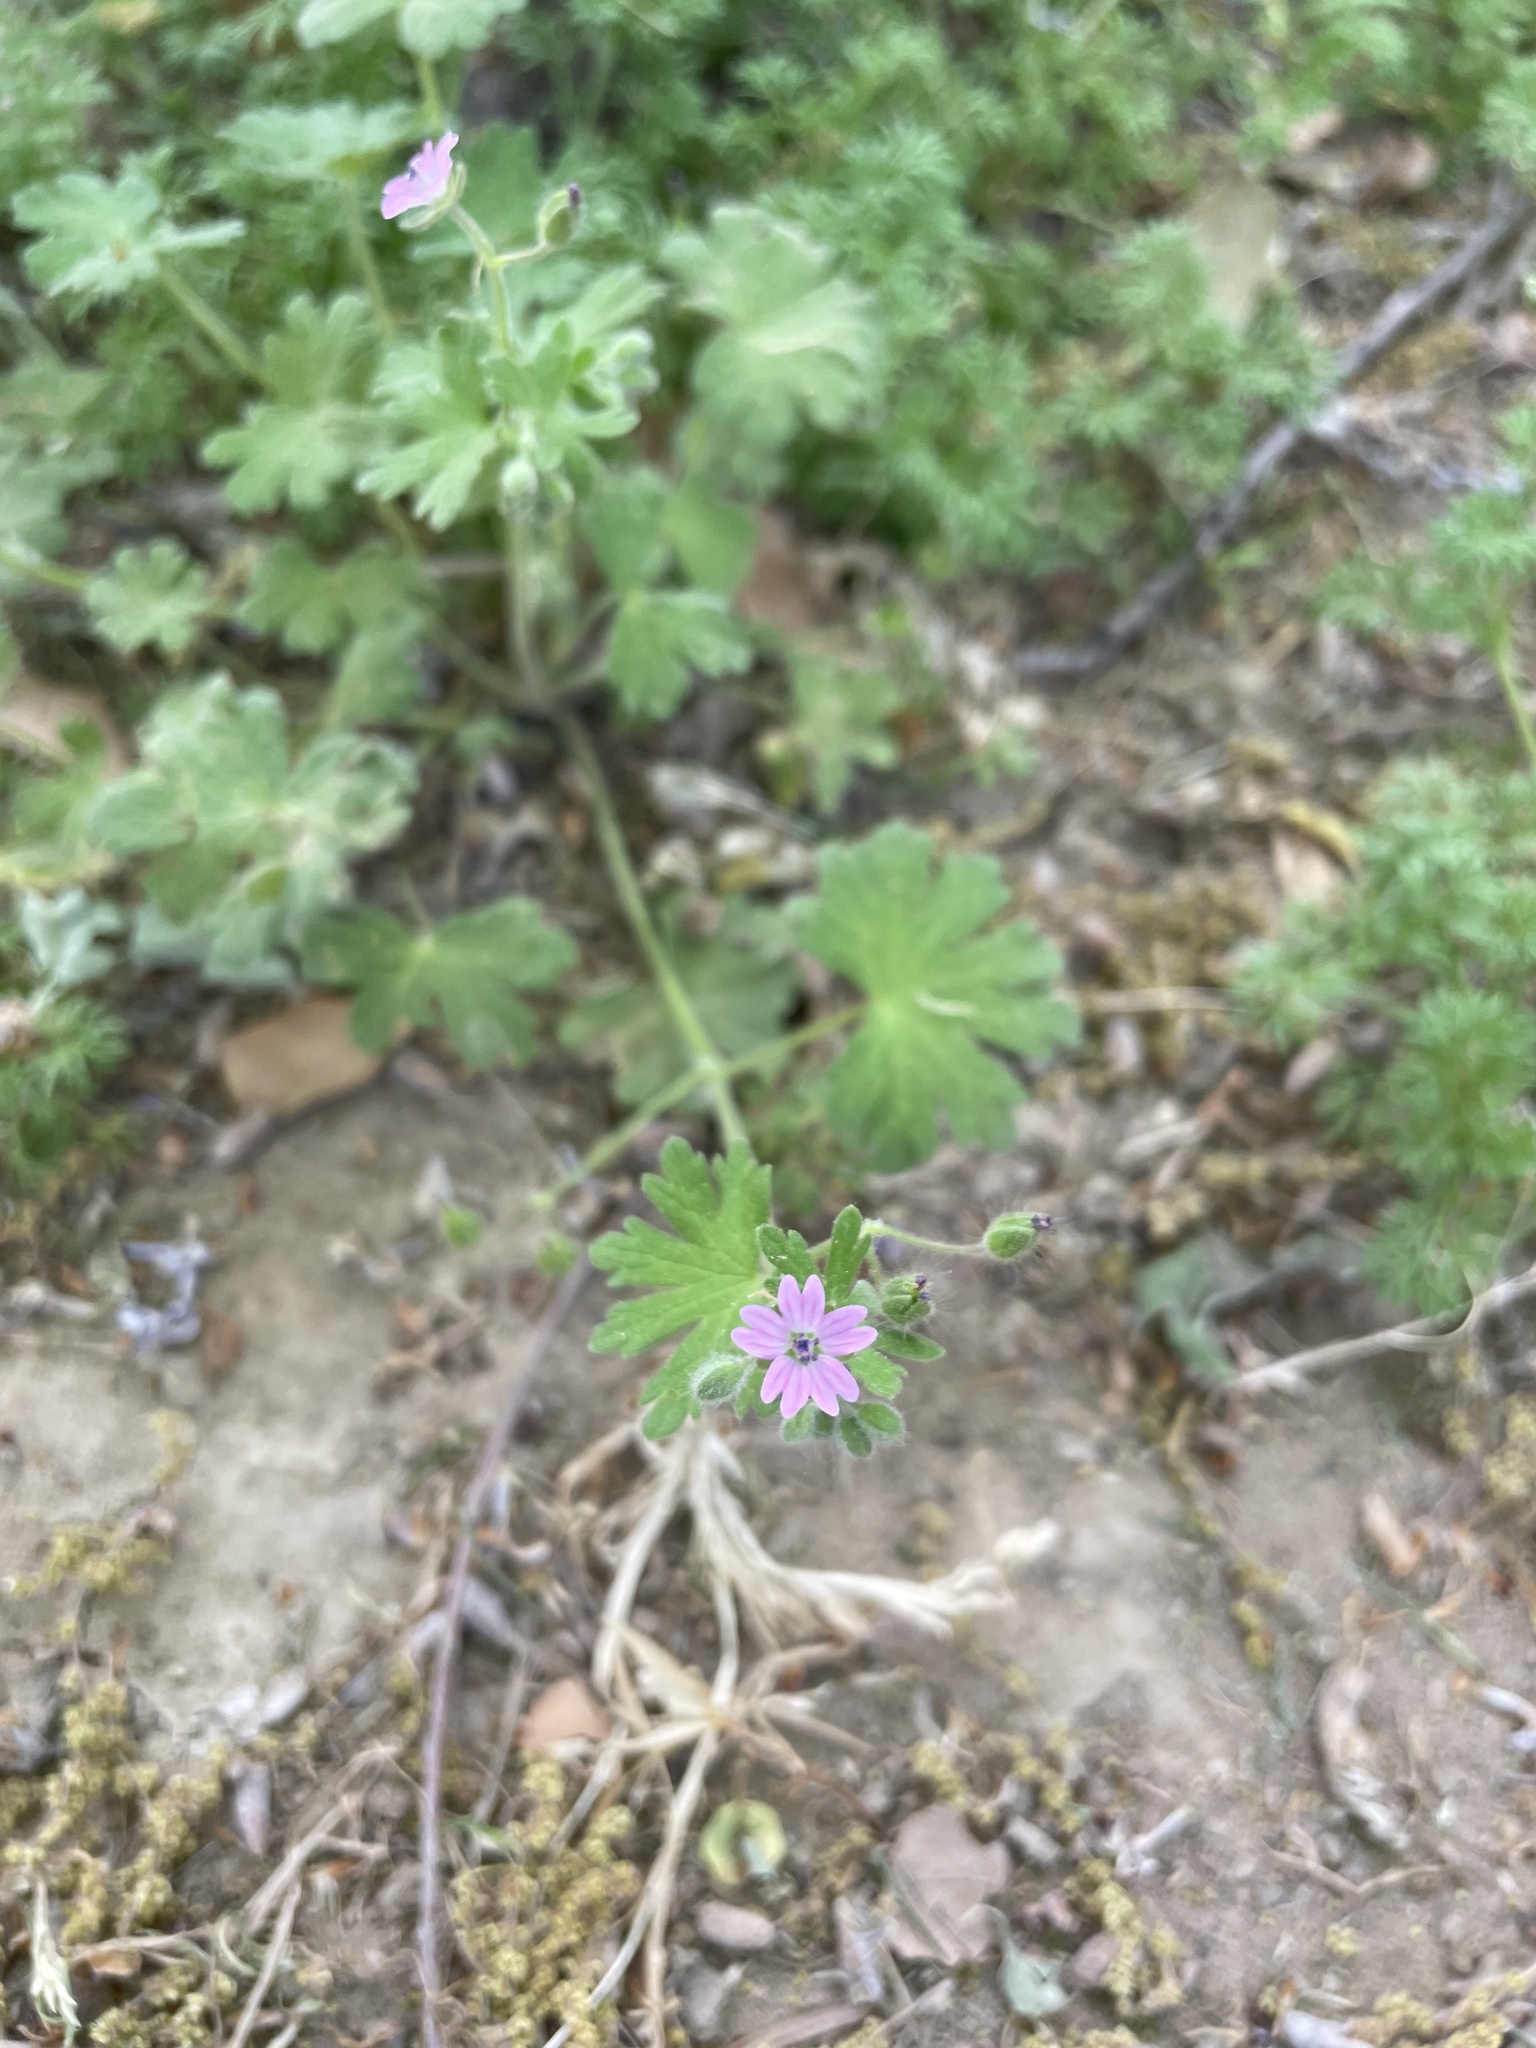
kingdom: Plantae
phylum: Tracheophyta
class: Magnoliopsida
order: Geraniales
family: Geraniaceae
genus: Geranium
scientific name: Geranium molle
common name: Dove's-foot crane's-bill
